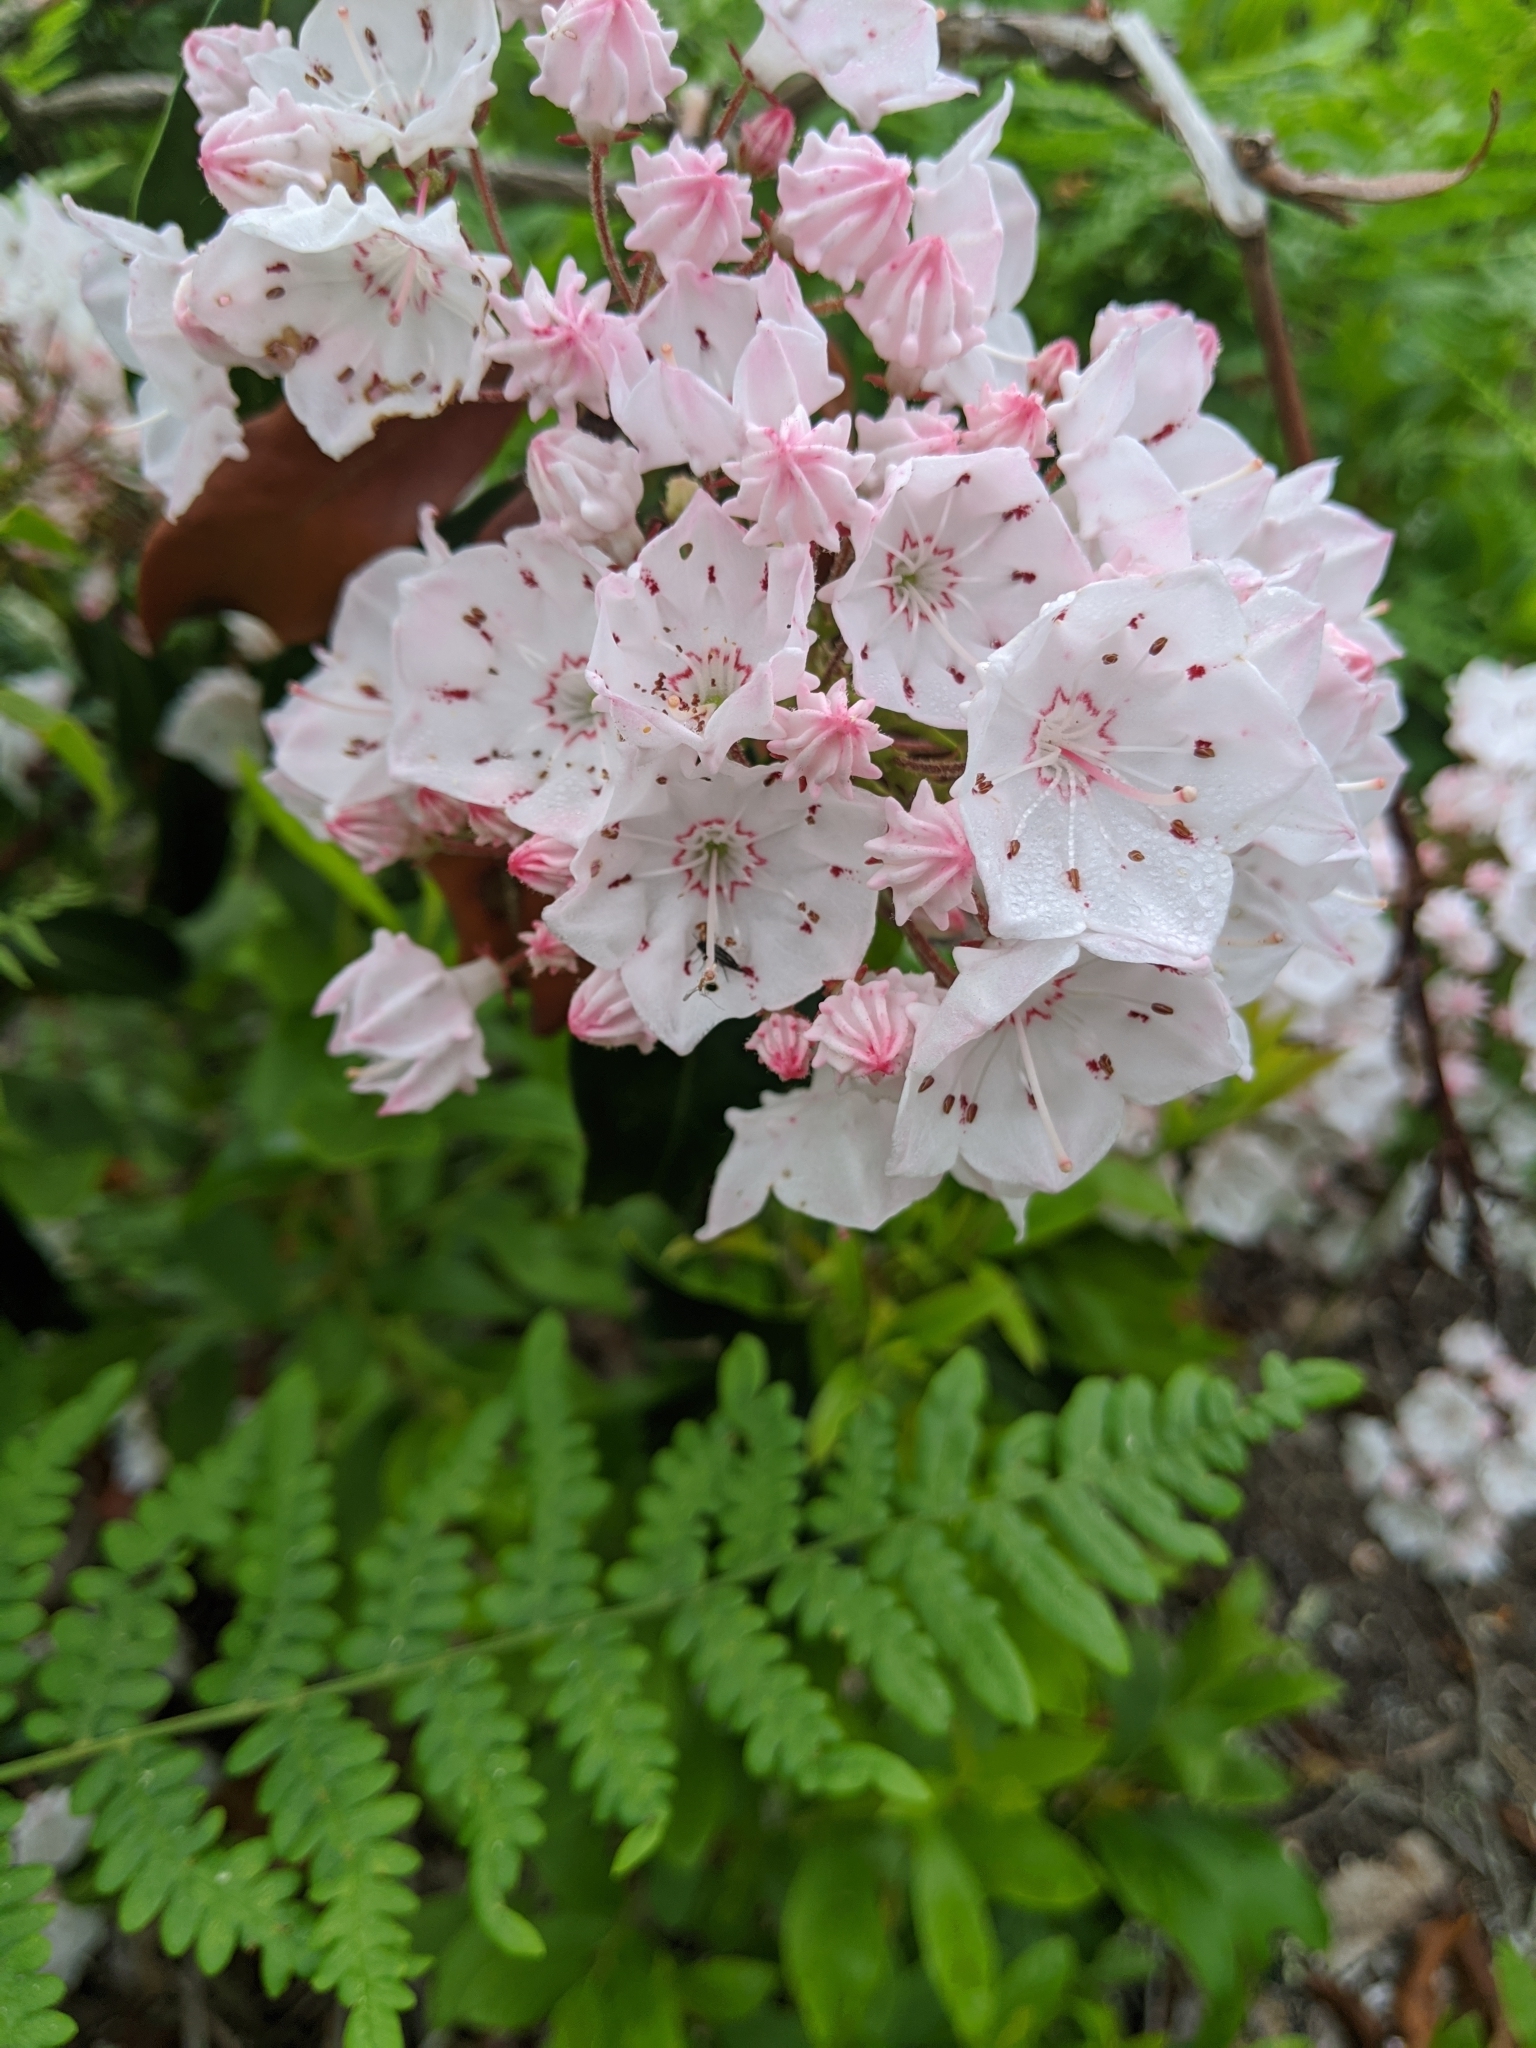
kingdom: Plantae
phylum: Tracheophyta
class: Magnoliopsida
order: Ericales
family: Ericaceae
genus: Kalmia
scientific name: Kalmia latifolia
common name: Mountain-laurel
